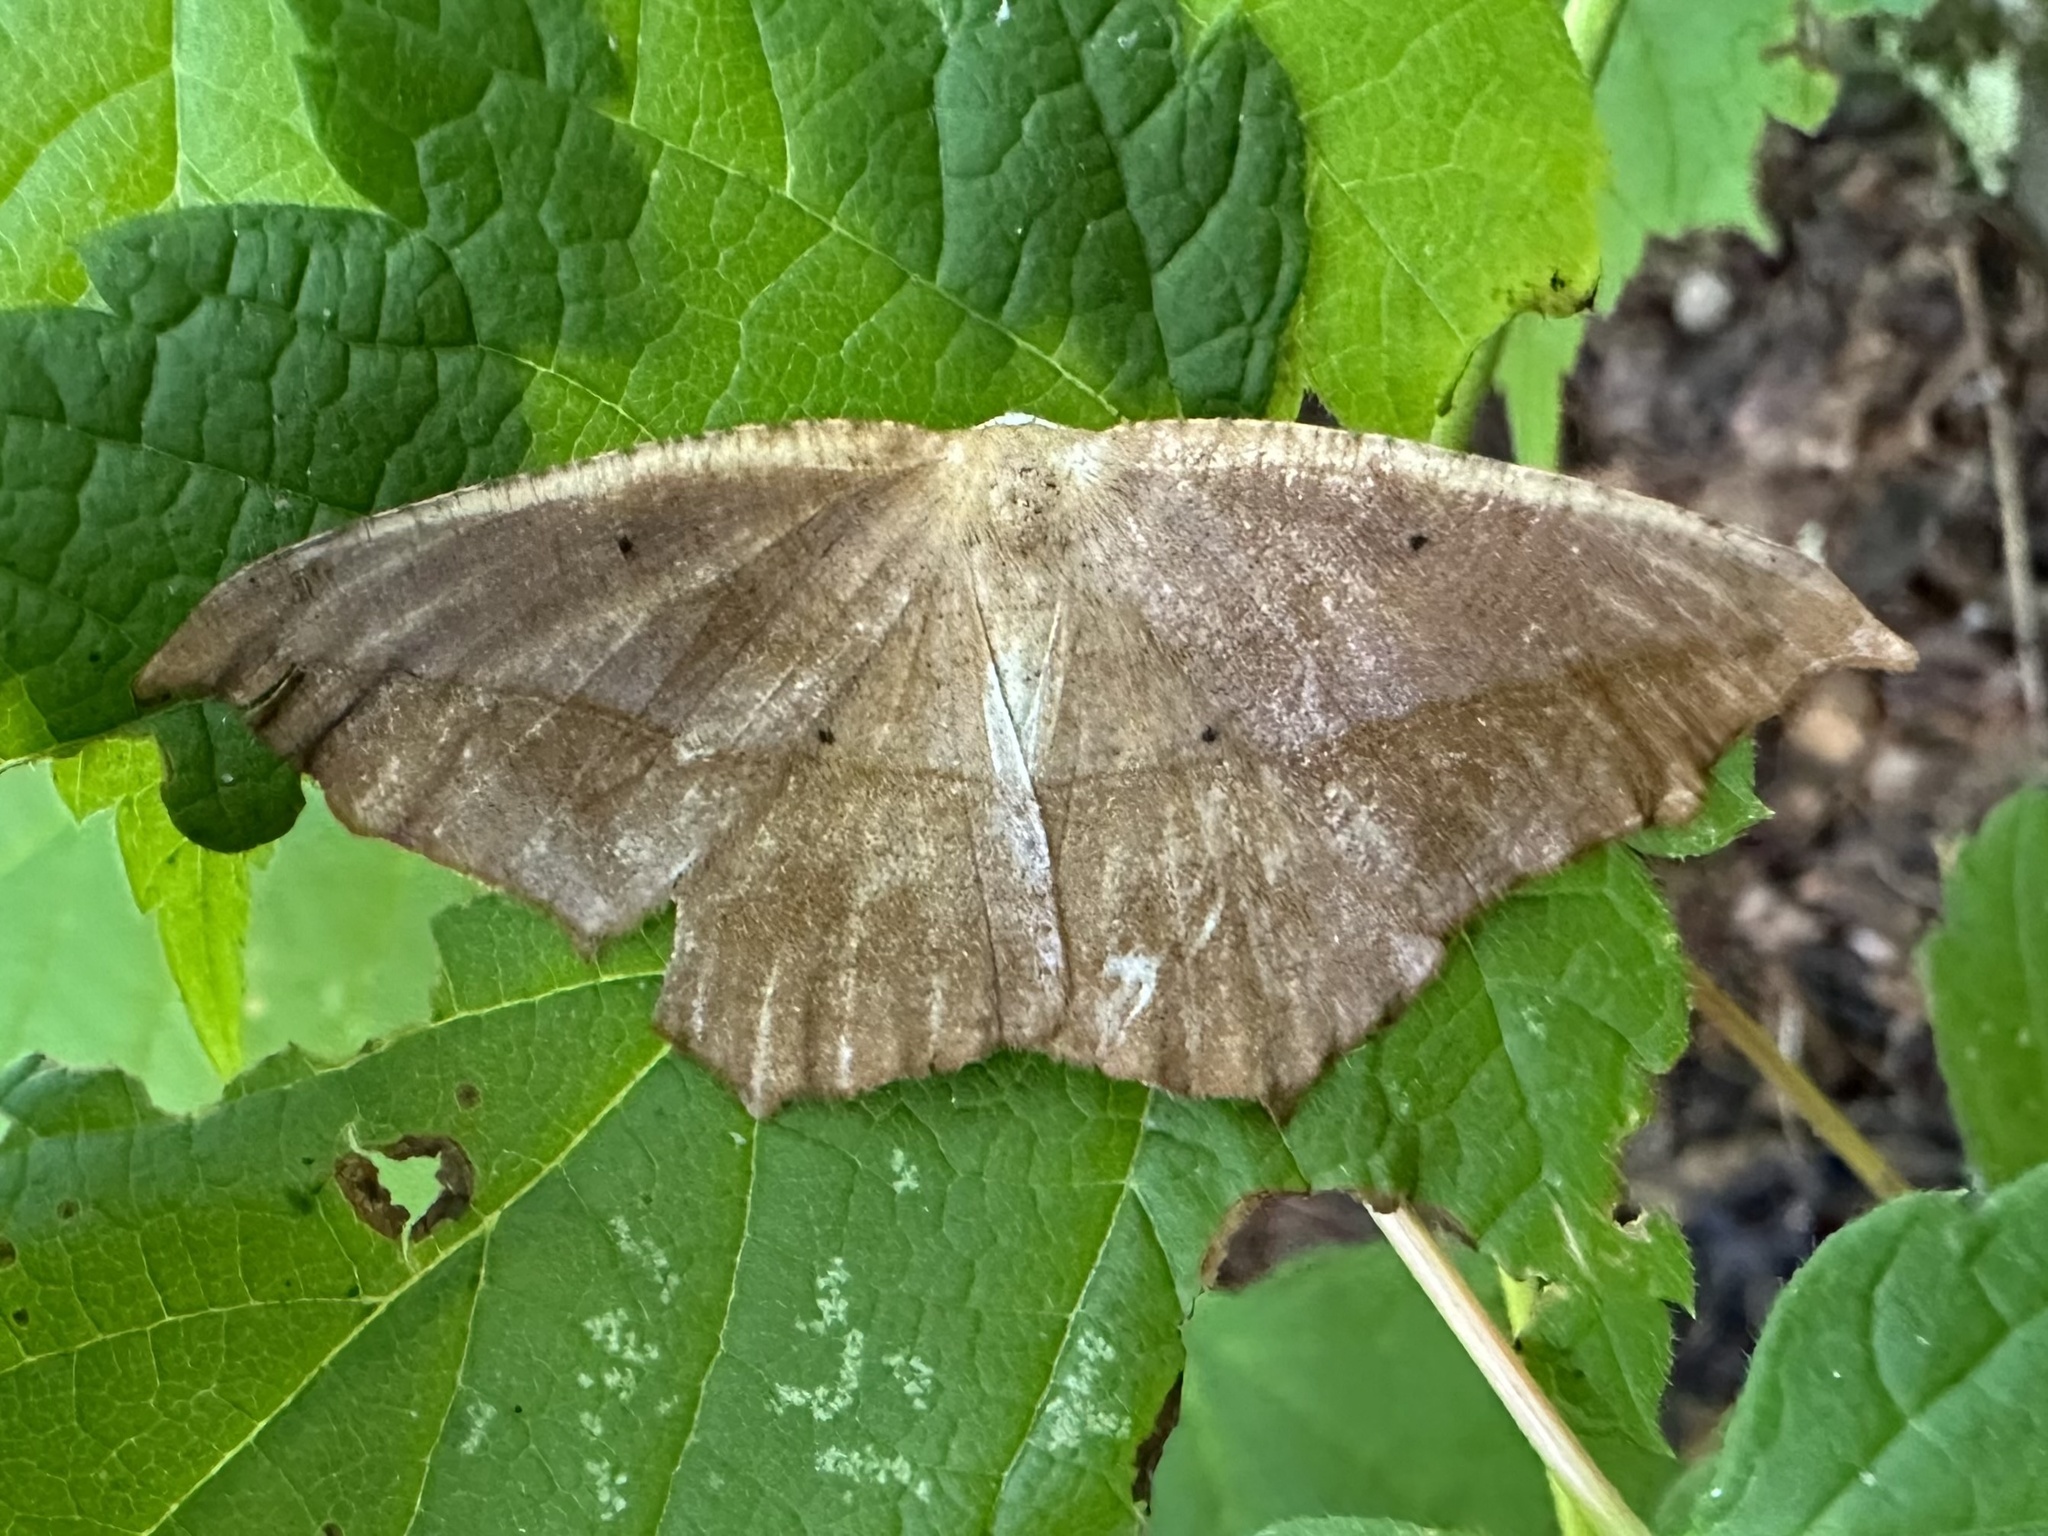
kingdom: Animalia
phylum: Arthropoda
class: Insecta
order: Lepidoptera
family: Geometridae
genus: Prochoerodes
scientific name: Prochoerodes lineola
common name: Large maple spanworm
